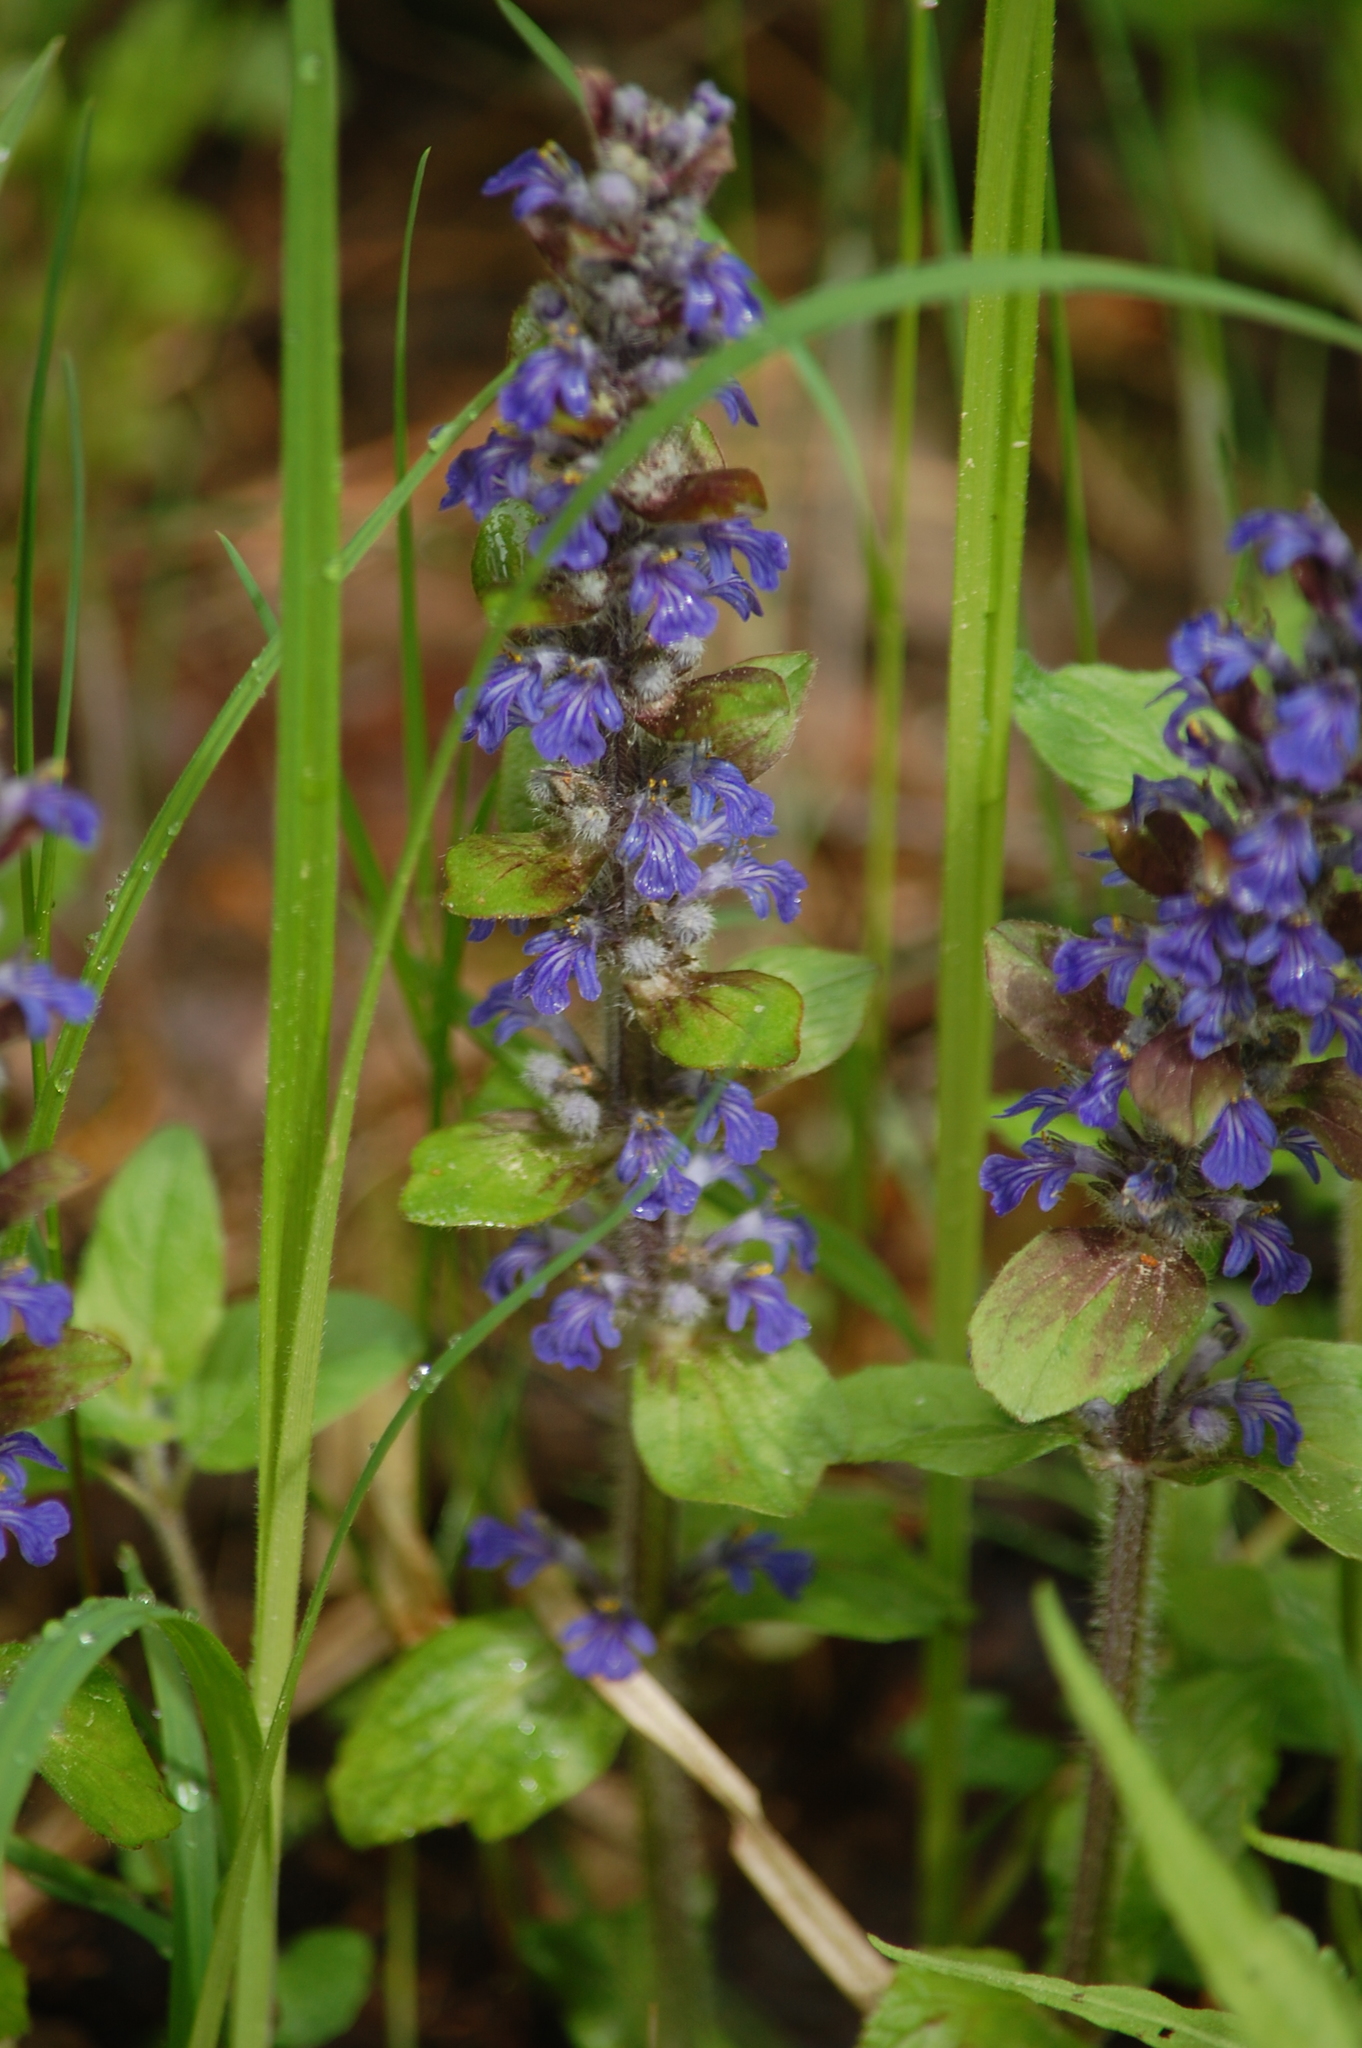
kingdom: Plantae
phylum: Tracheophyta
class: Magnoliopsida
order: Lamiales
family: Lamiaceae
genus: Ajuga
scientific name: Ajuga reptans
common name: Bugle
